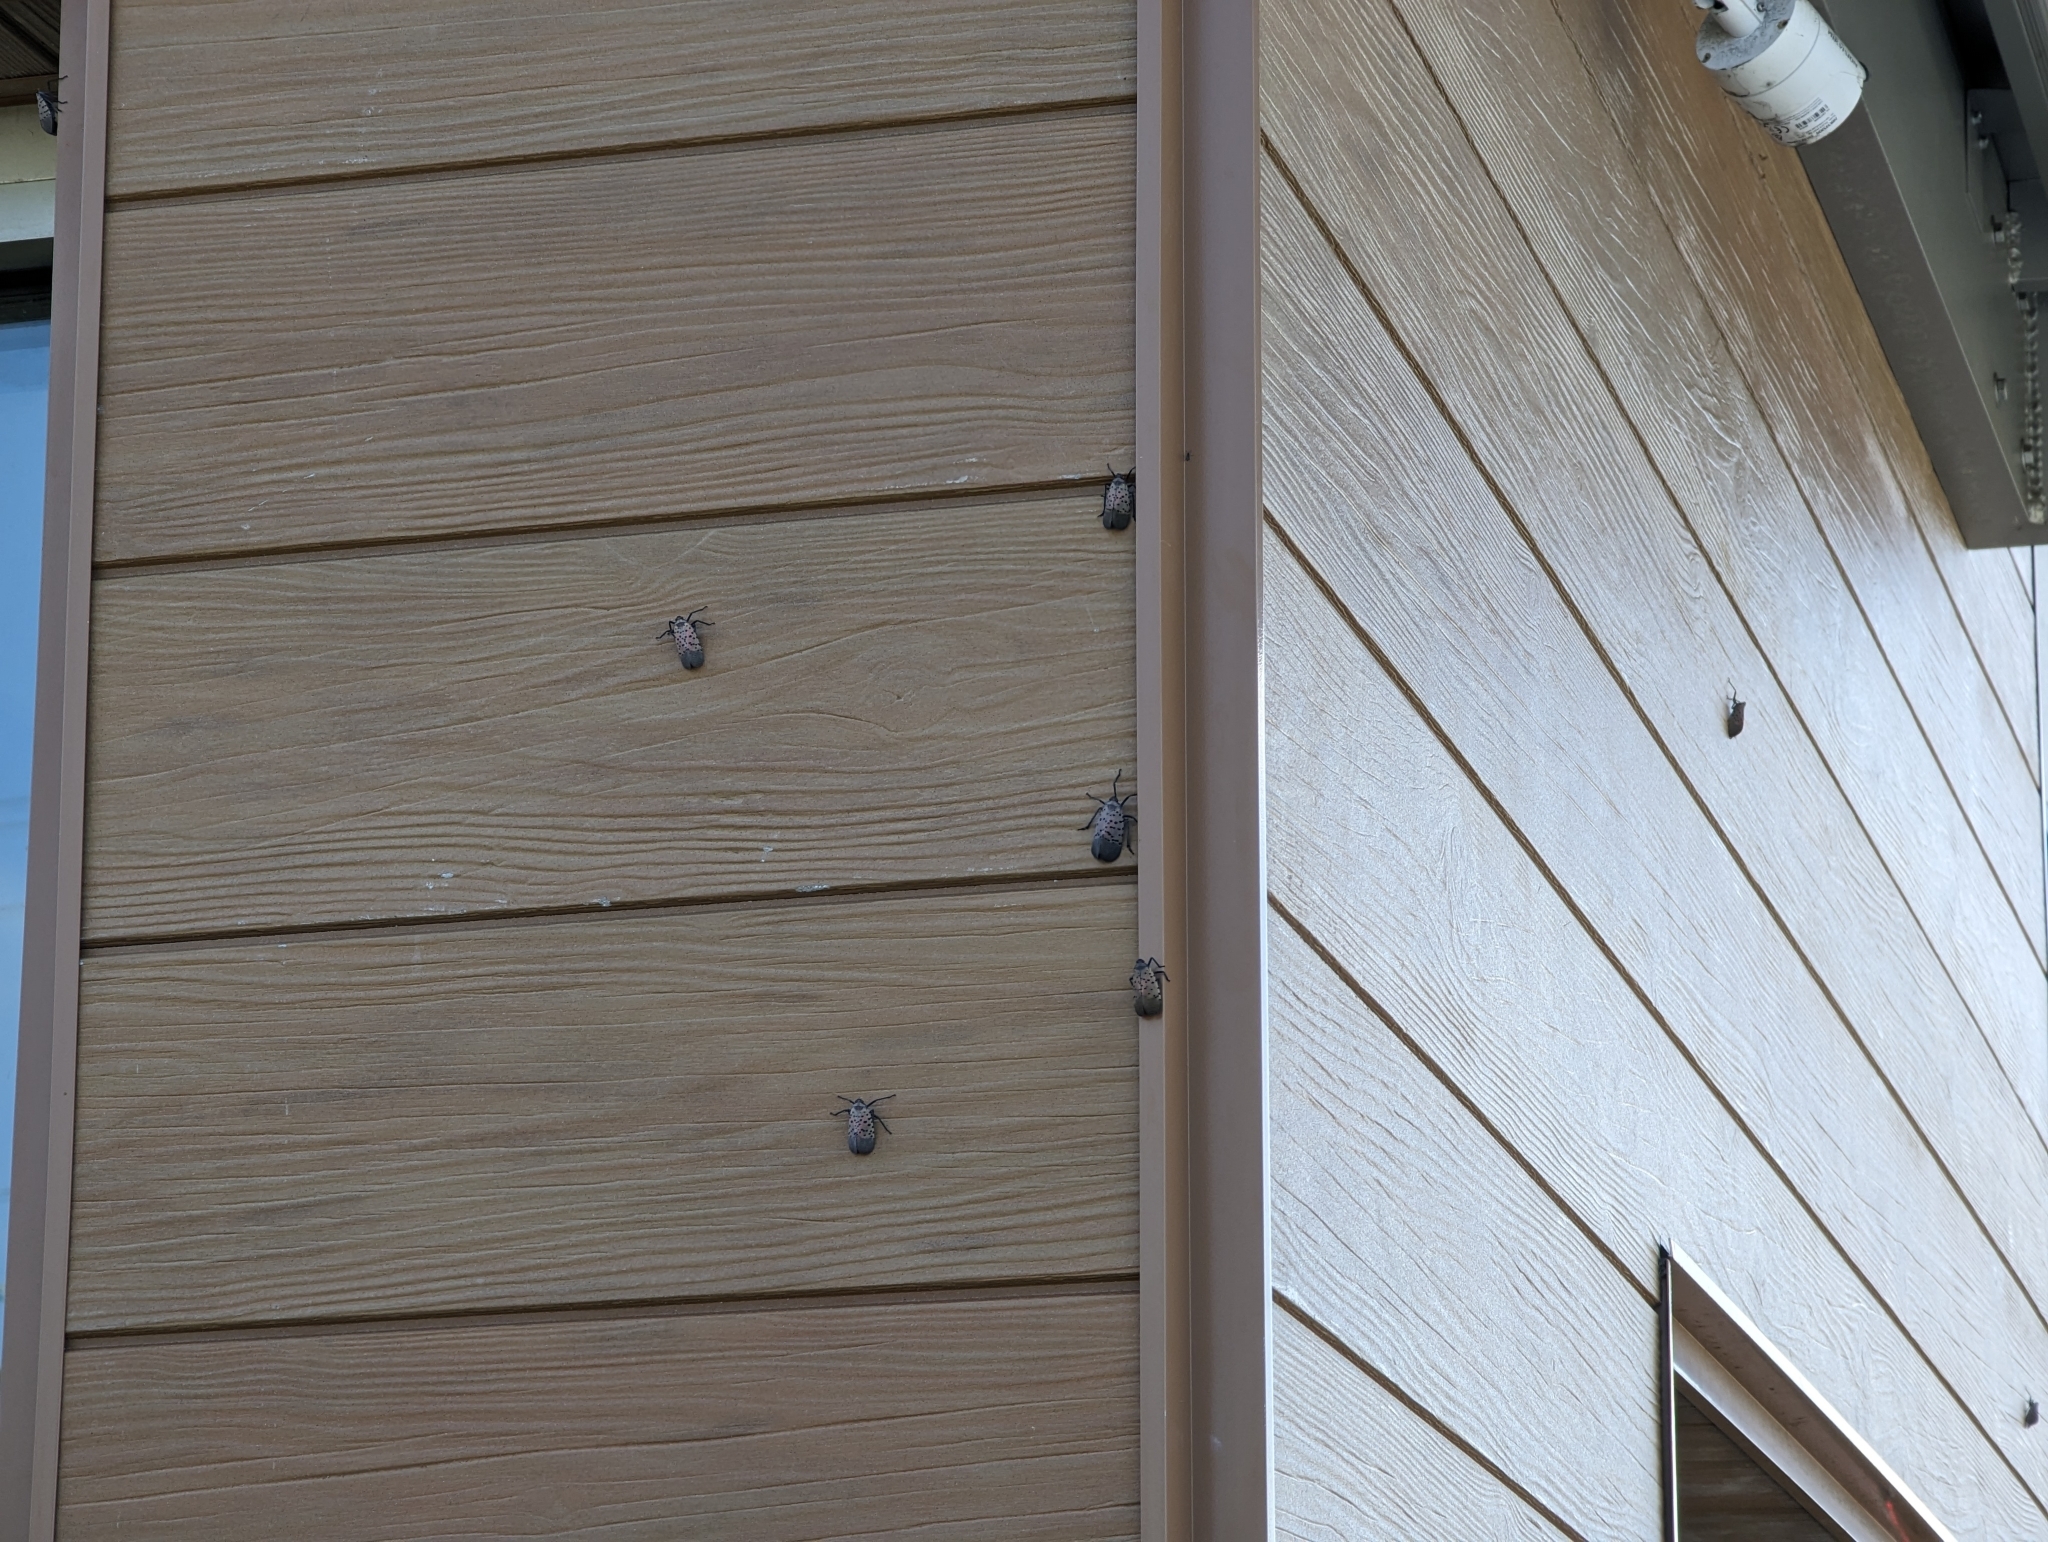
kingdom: Animalia
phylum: Arthropoda
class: Insecta
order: Hemiptera
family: Fulgoridae
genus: Lycorma
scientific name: Lycorma delicatula
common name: Spotted lanternfly
